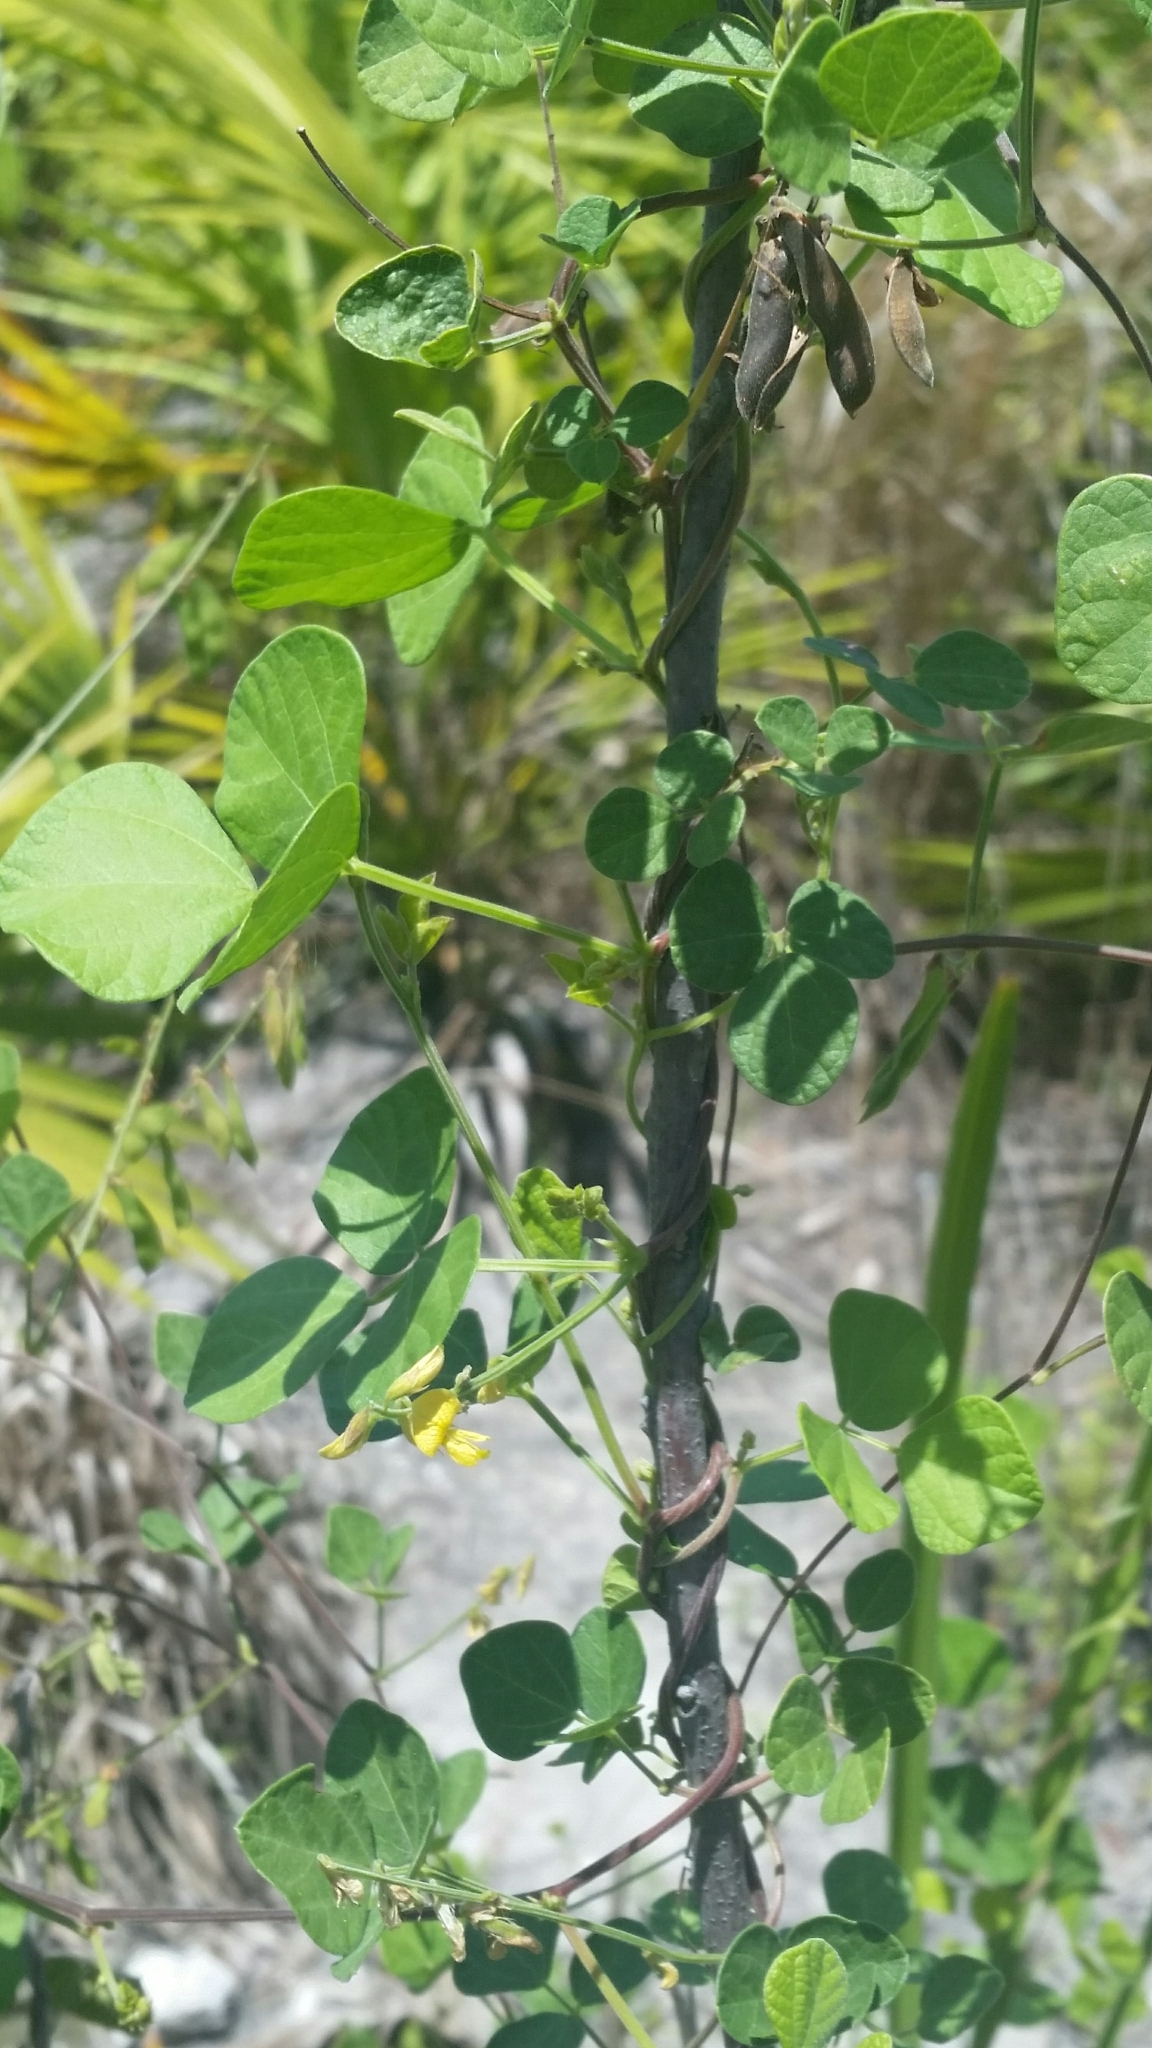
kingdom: Plantae
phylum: Tracheophyta
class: Magnoliopsida
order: Fabales
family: Fabaceae
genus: Rhynchosia
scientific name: Rhynchosia minima
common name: Least snoutbean
